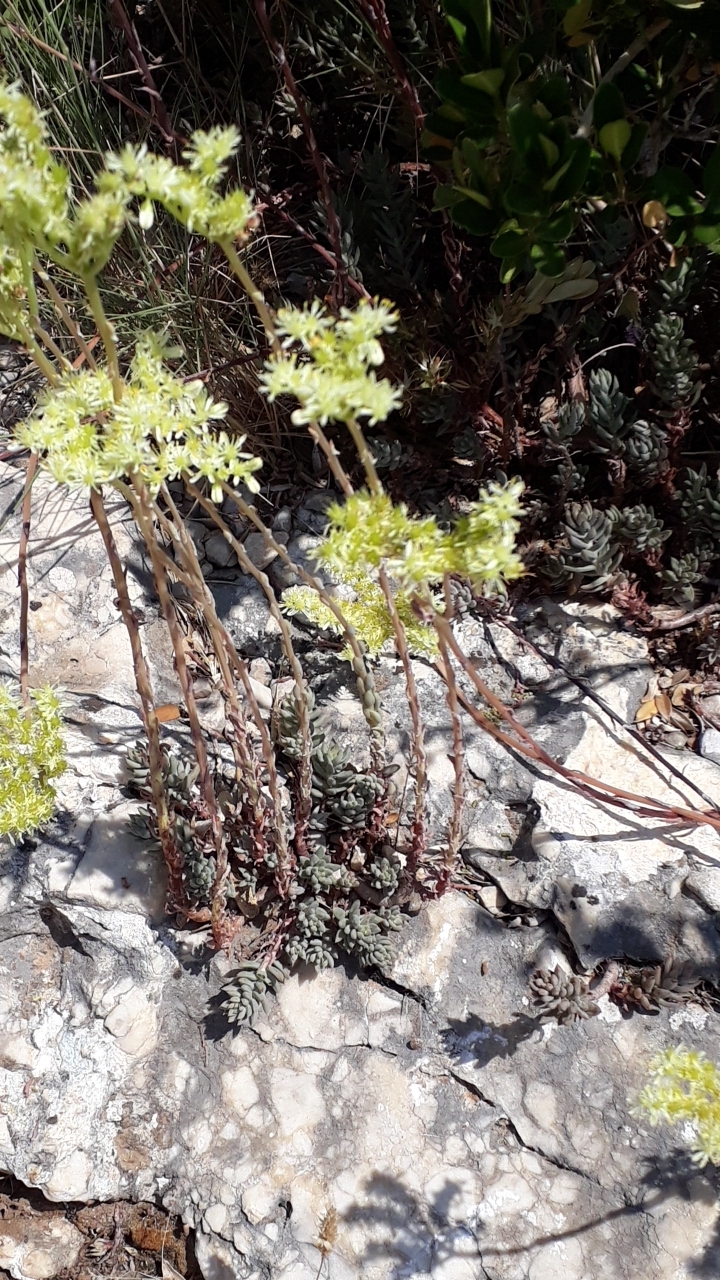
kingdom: Plantae
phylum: Tracheophyta
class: Magnoliopsida
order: Saxifragales
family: Crassulaceae
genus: Petrosedum
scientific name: Petrosedum sediforme
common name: Pale stonecrop
